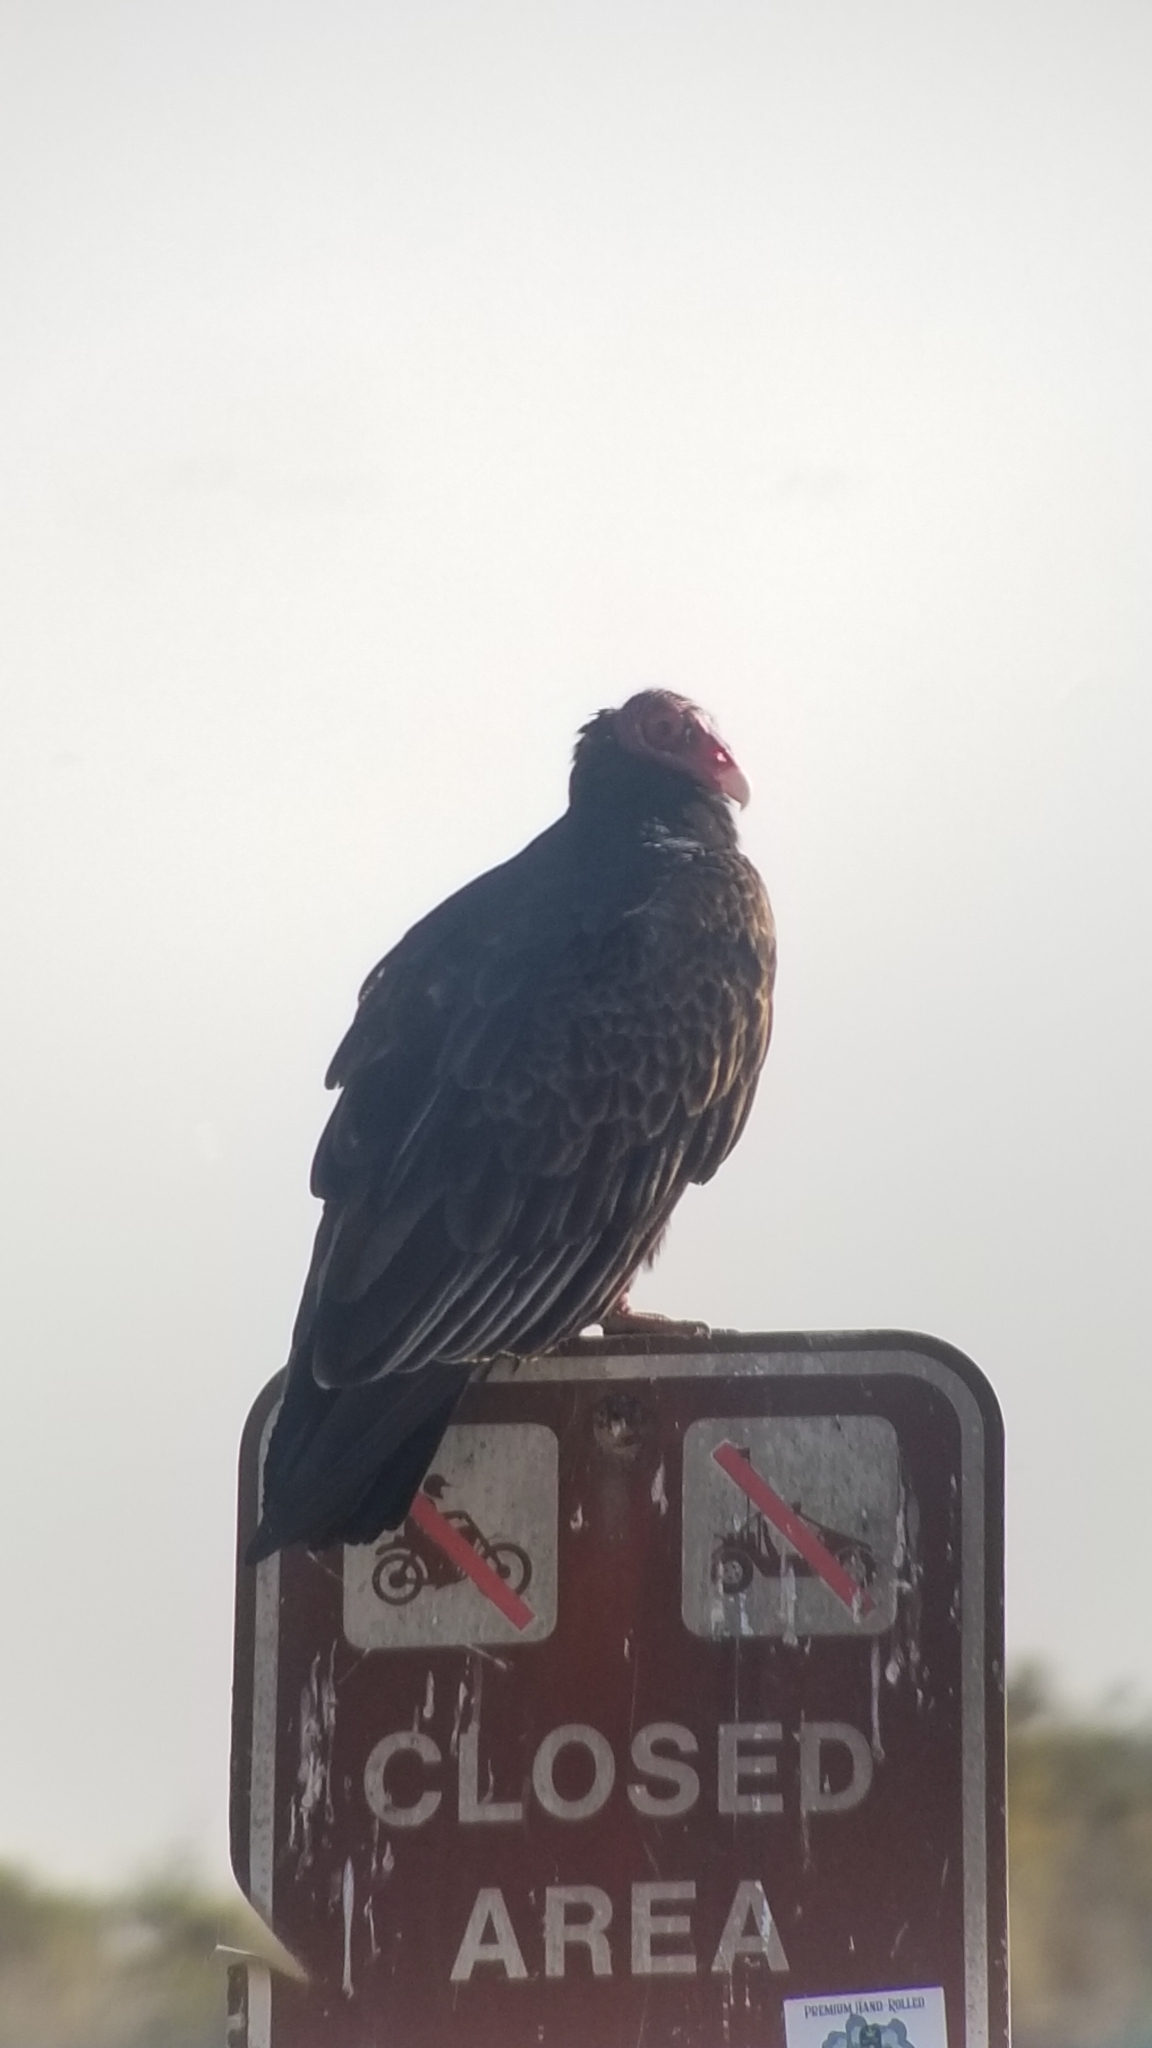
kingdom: Animalia
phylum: Chordata
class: Aves
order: Accipitriformes
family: Cathartidae
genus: Cathartes
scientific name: Cathartes aura
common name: Turkey vulture
